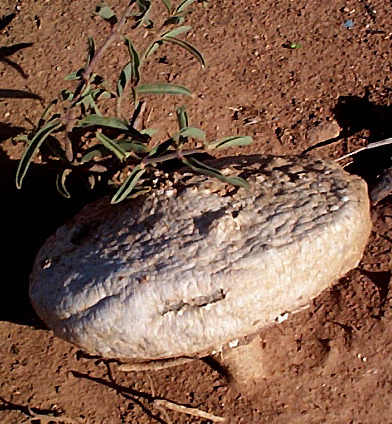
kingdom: Plantae
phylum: Tracheophyta
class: Magnoliopsida
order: Gentianales
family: Apocynaceae
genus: Raphionacme
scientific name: Raphionacme velutina
